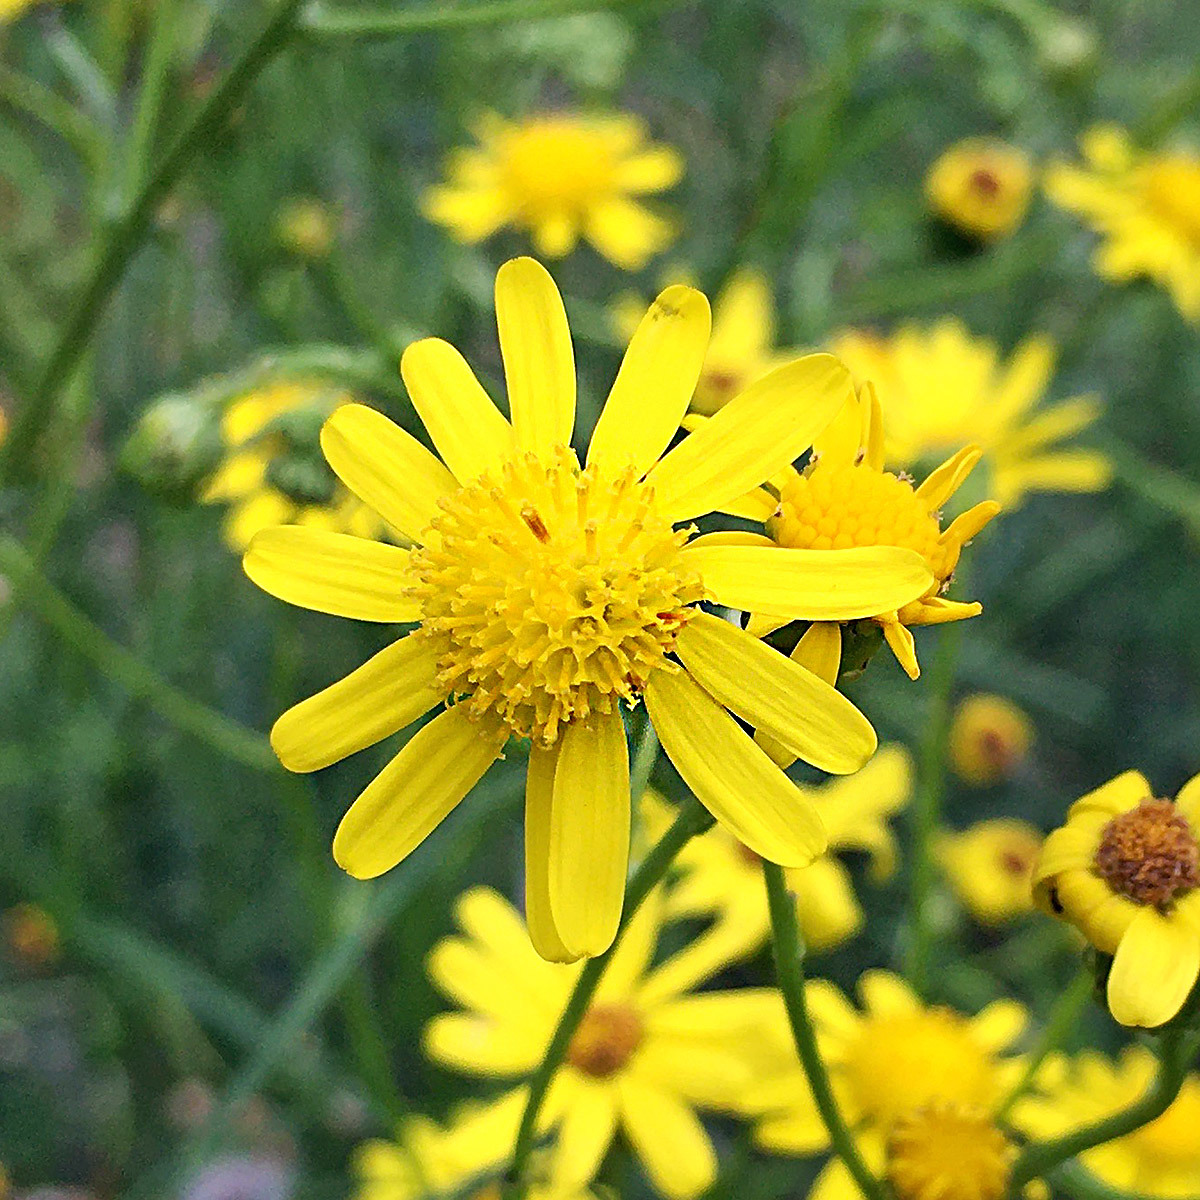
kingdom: Plantae
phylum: Tracheophyta
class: Magnoliopsida
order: Asterales
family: Asteraceae
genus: Senecio
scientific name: Senecio inaequidens
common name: Narrow-leaved ragwort
